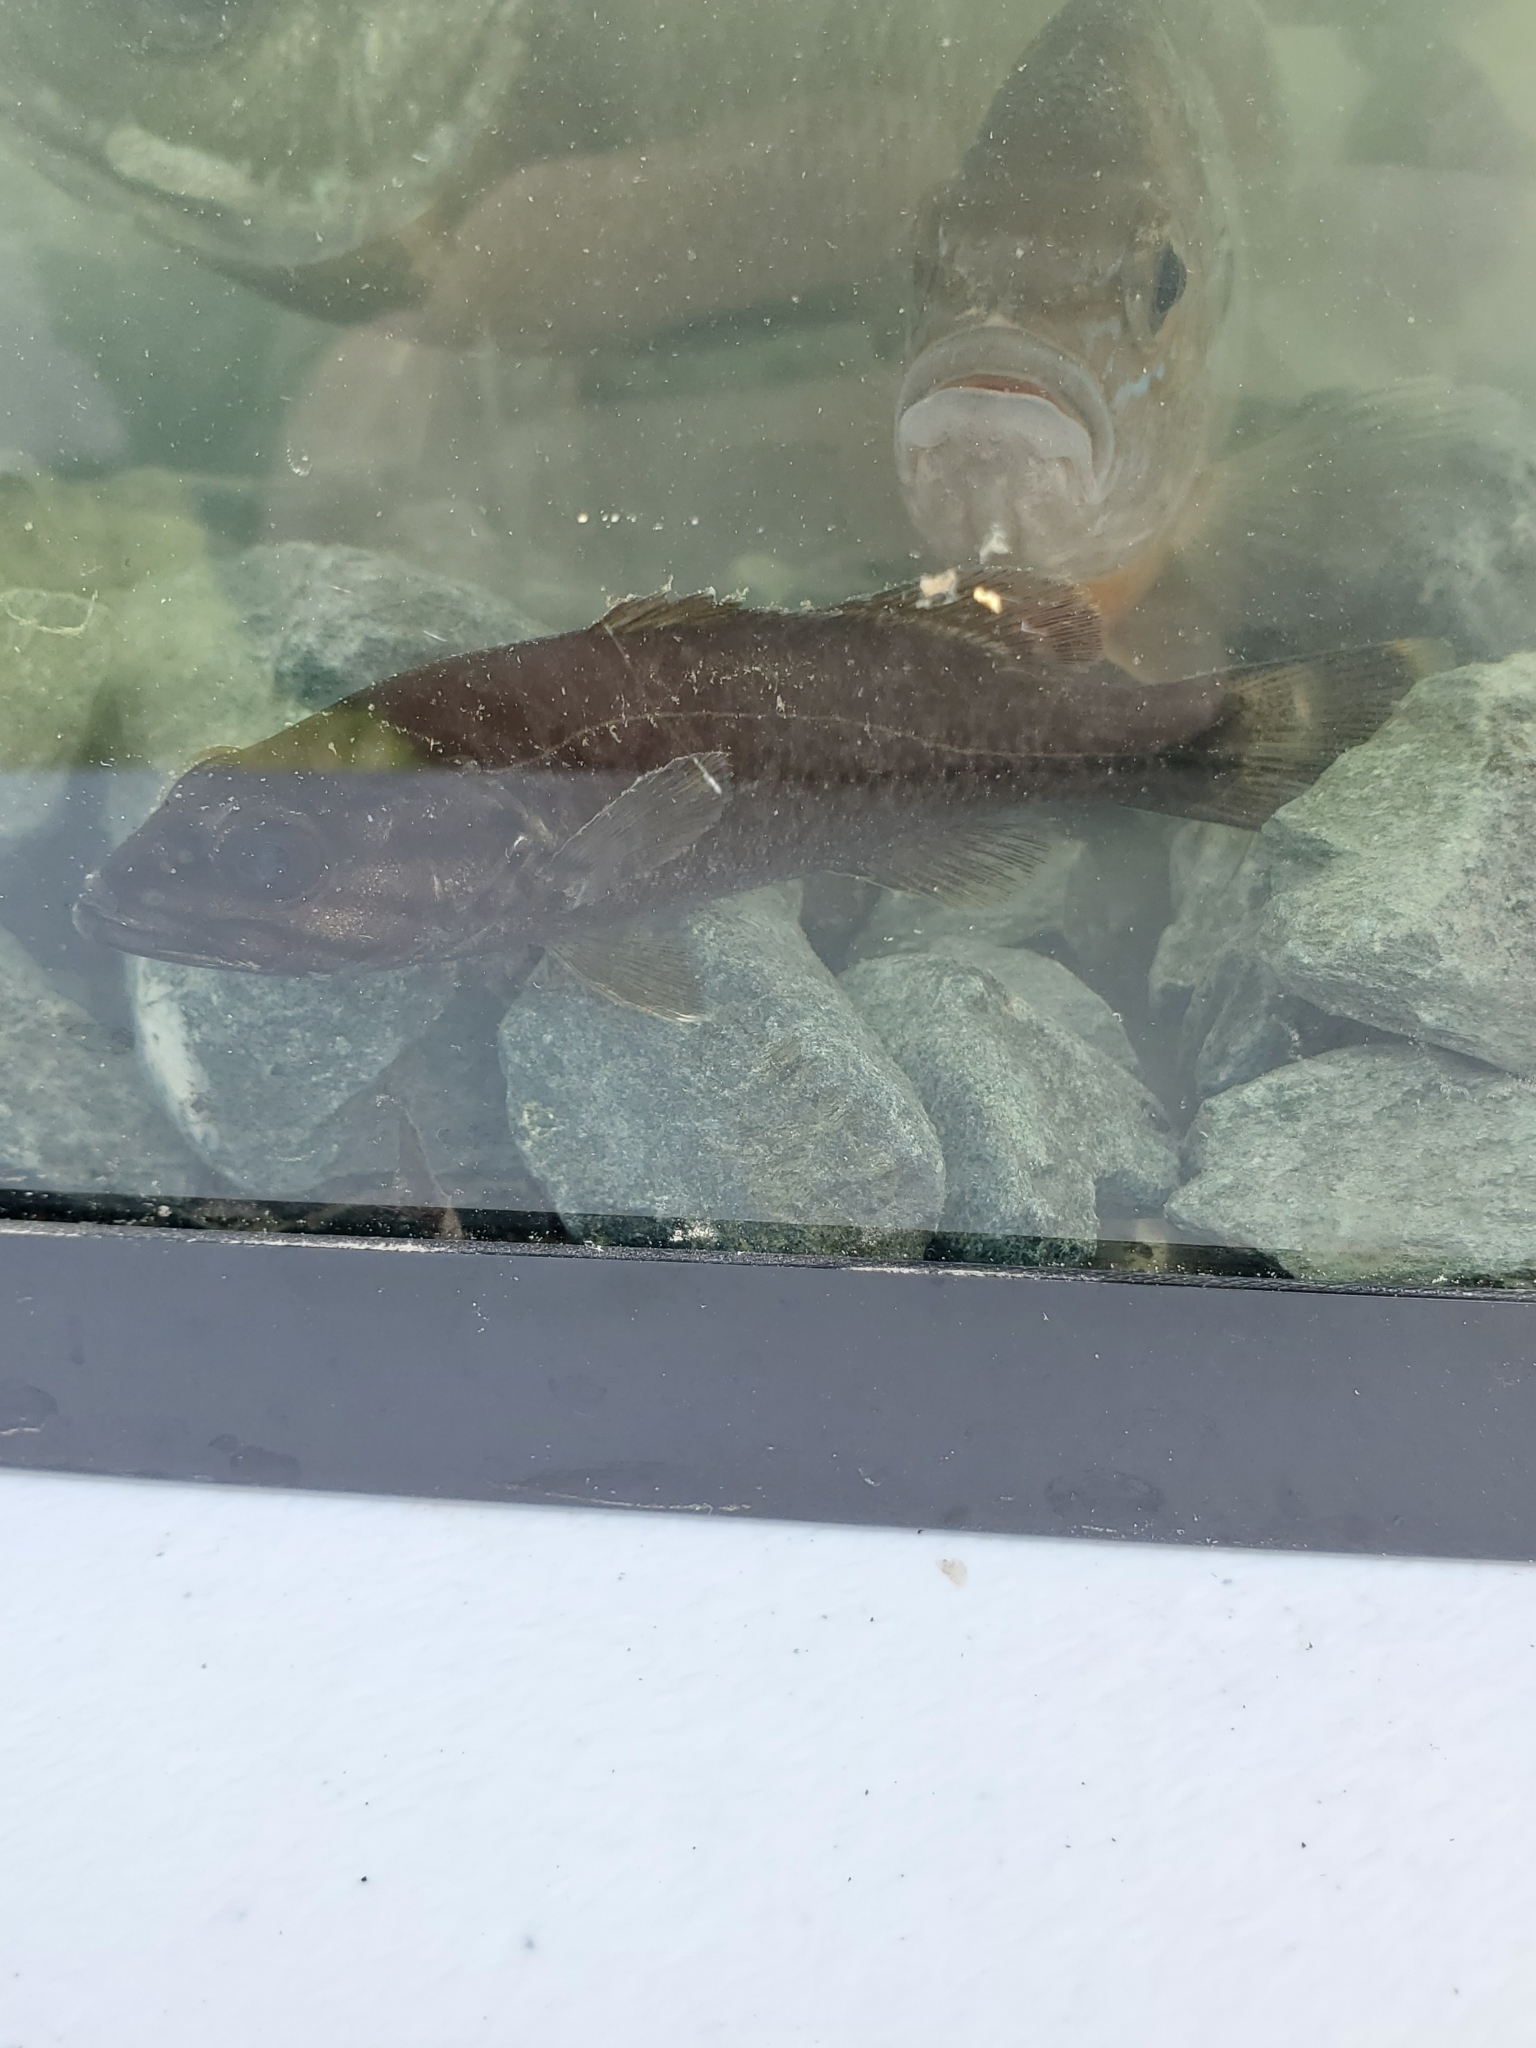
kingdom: Animalia
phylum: Chordata
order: Perciformes
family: Centrarchidae
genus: Micropterus
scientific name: Micropterus dolomieu
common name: Smallmouth bass
